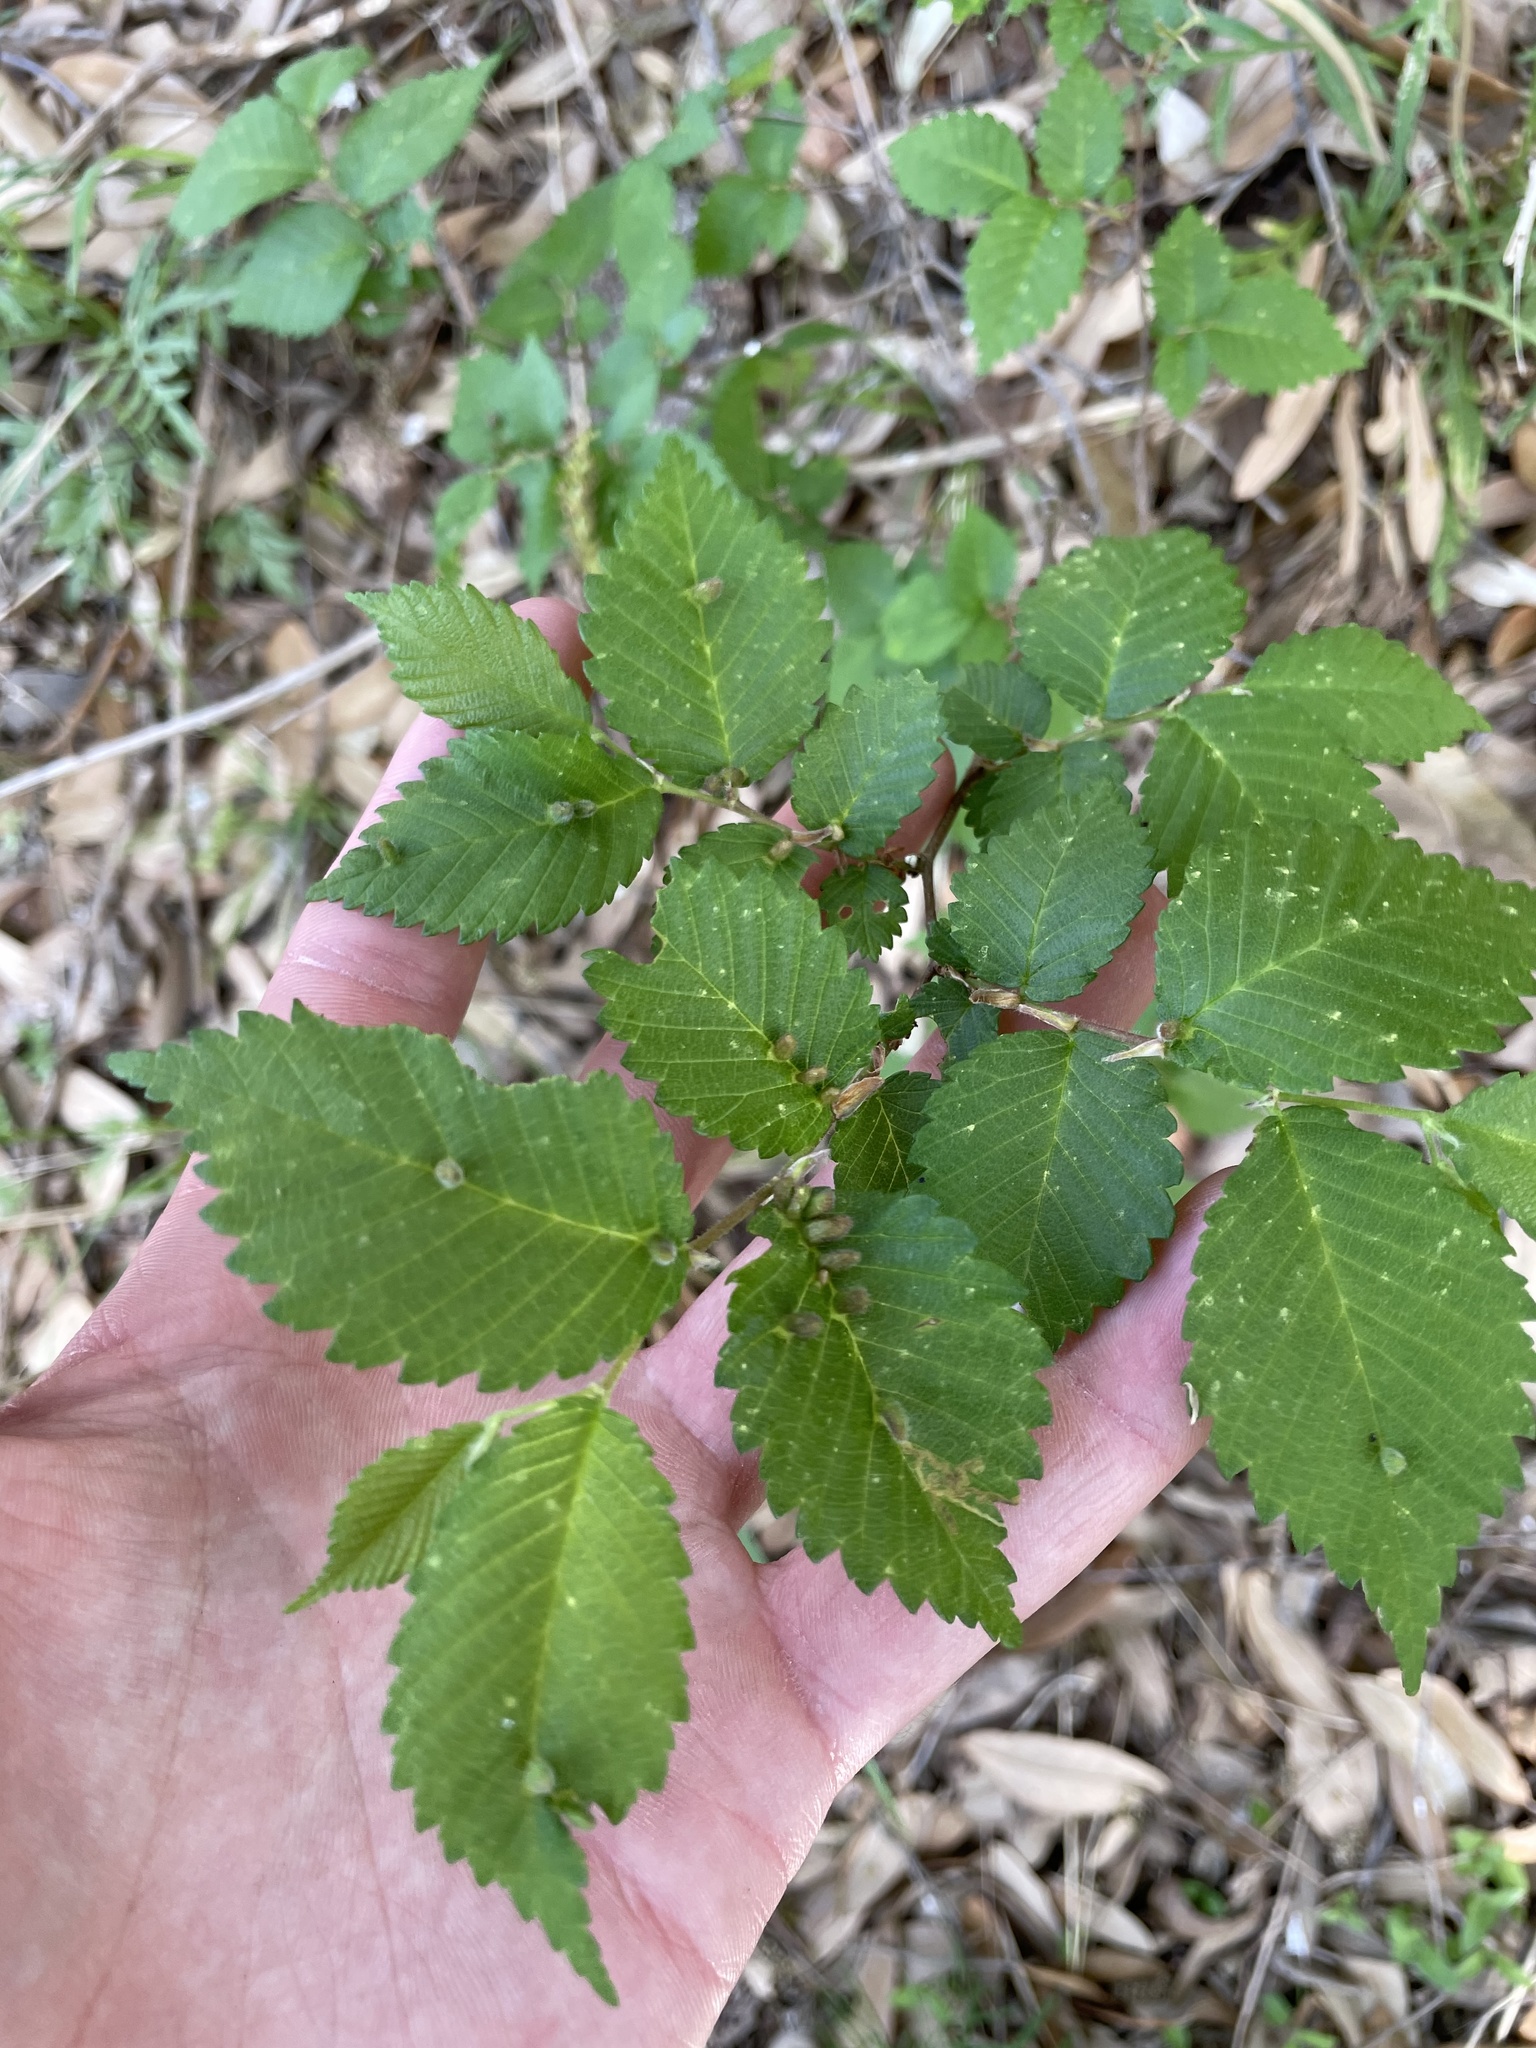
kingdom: Animalia
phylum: Arthropoda
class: Arachnida
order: Trombidiformes
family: Eriophyidae
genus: Aceria
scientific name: Aceria
